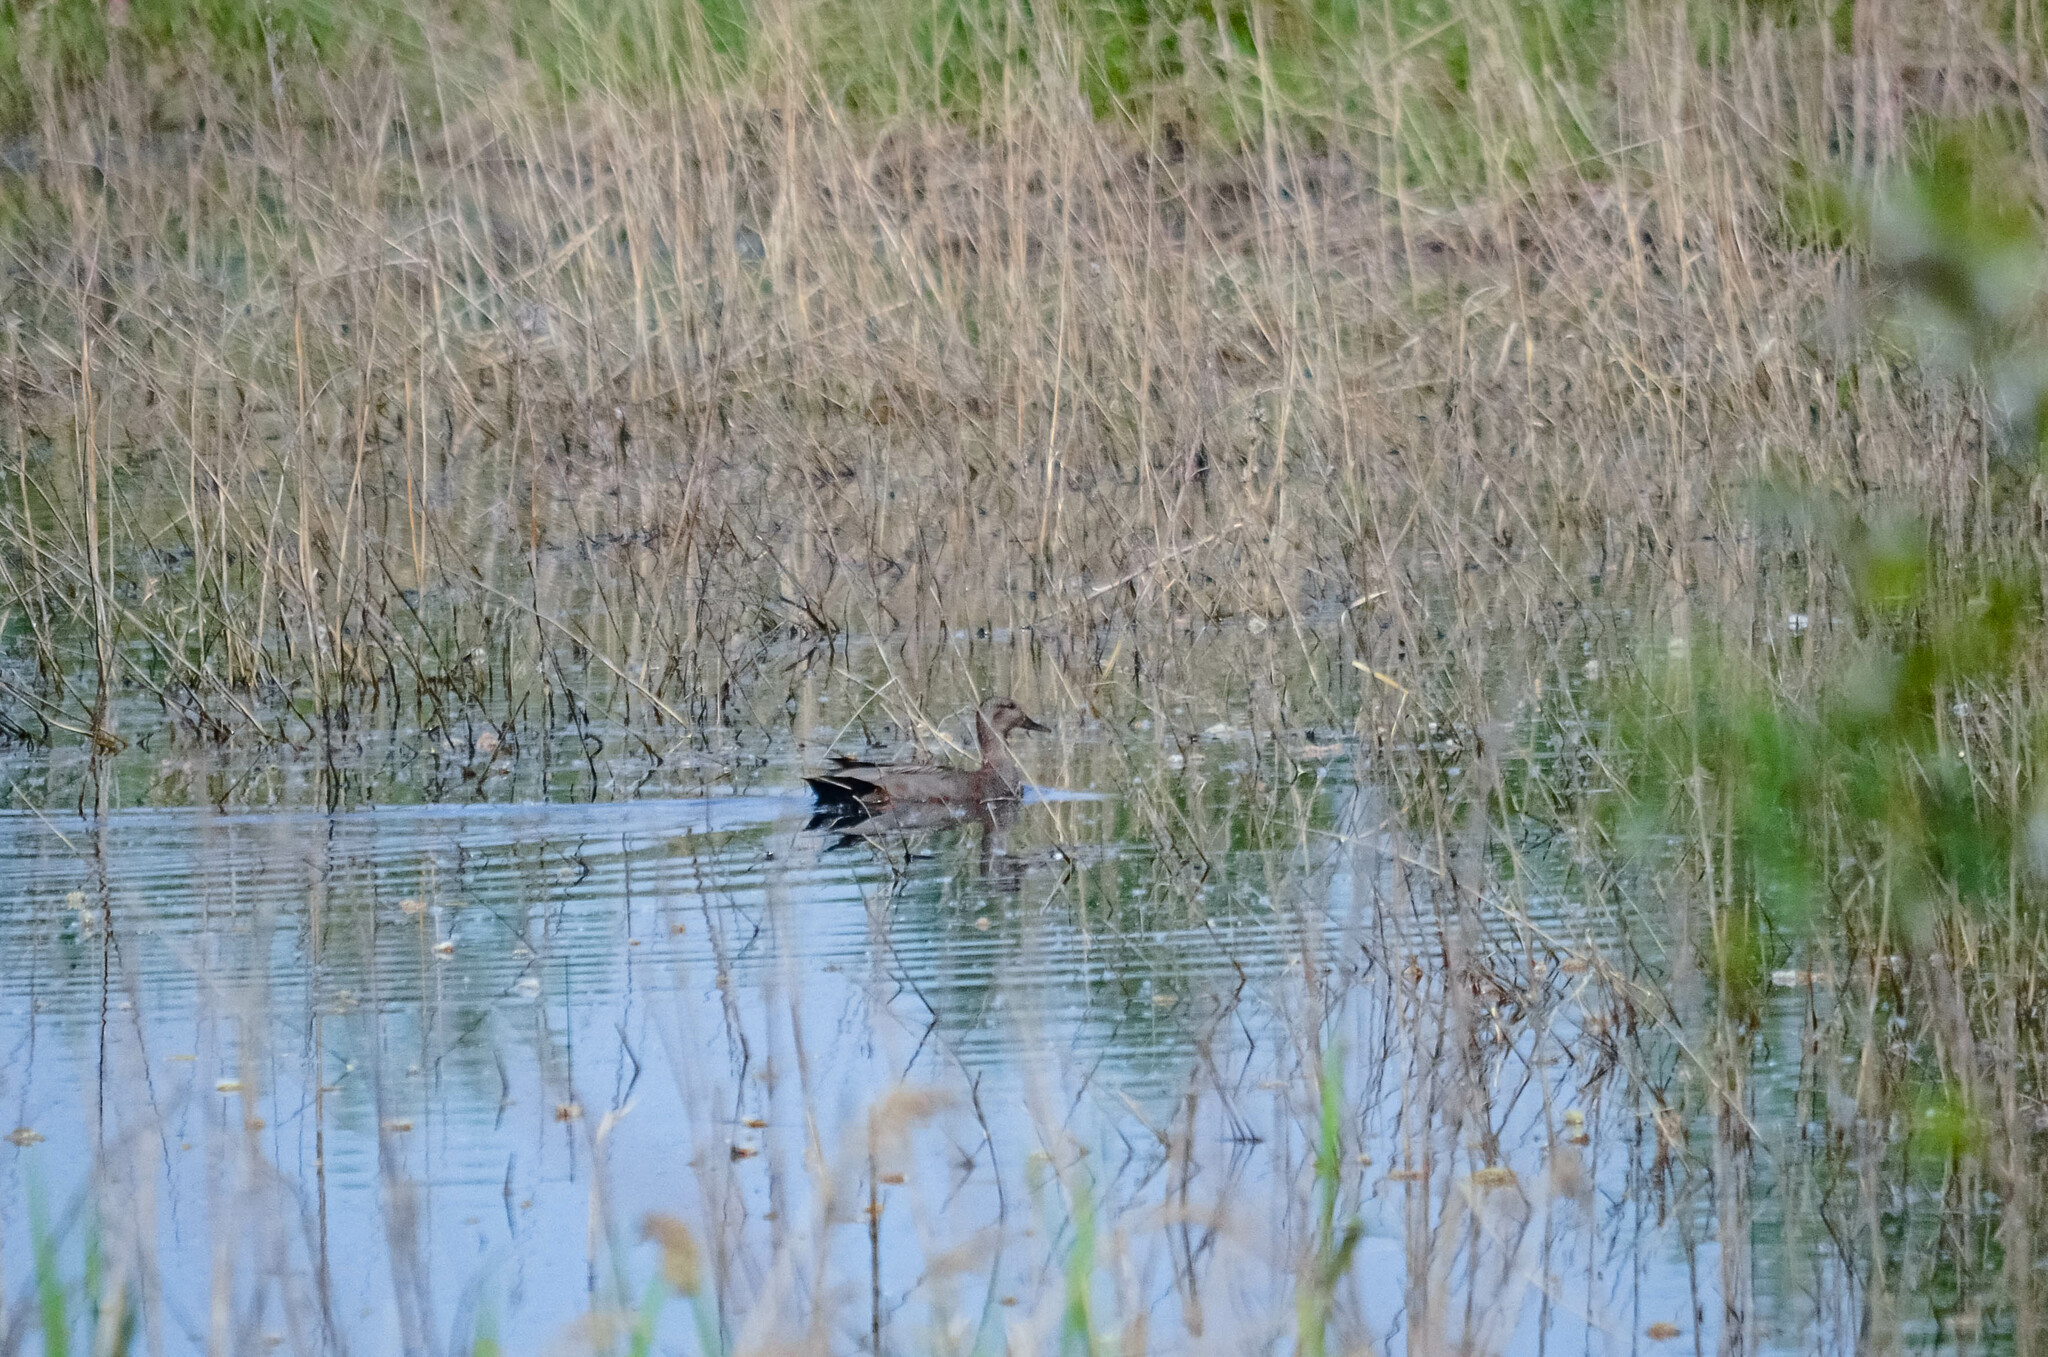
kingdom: Animalia
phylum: Chordata
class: Aves
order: Anseriformes
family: Anatidae
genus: Mareca
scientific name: Mareca strepera
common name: Gadwall
